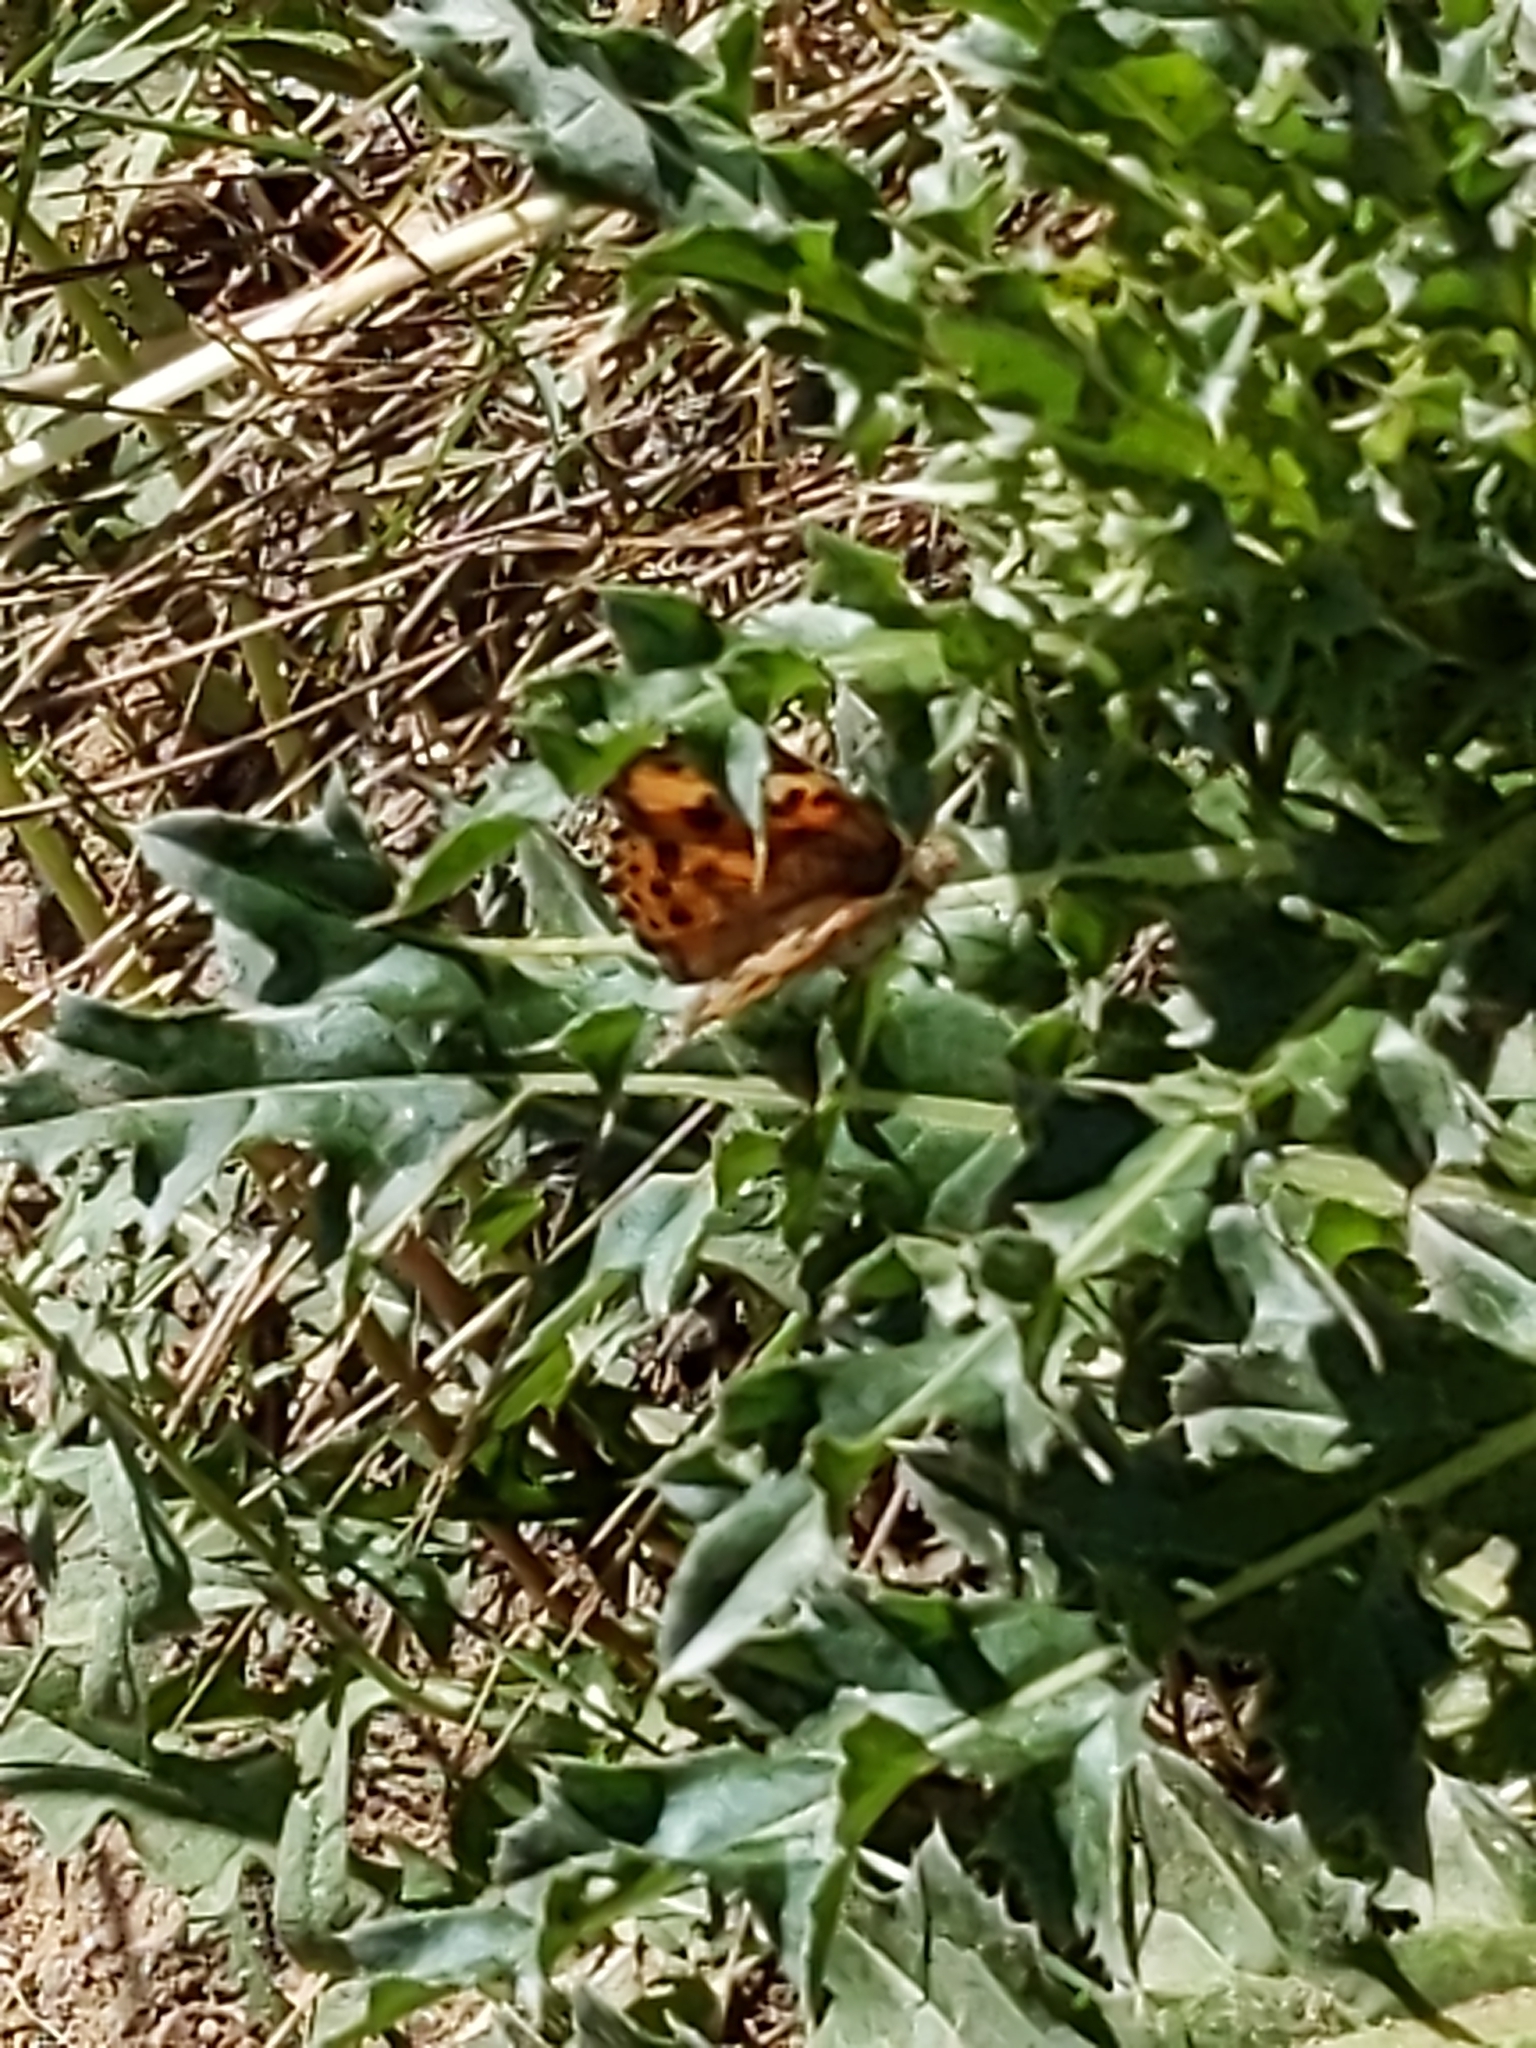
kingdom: Animalia
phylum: Arthropoda
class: Insecta
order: Lepidoptera
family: Nymphalidae
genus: Vanessa
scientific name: Vanessa cardui
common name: Painted lady
